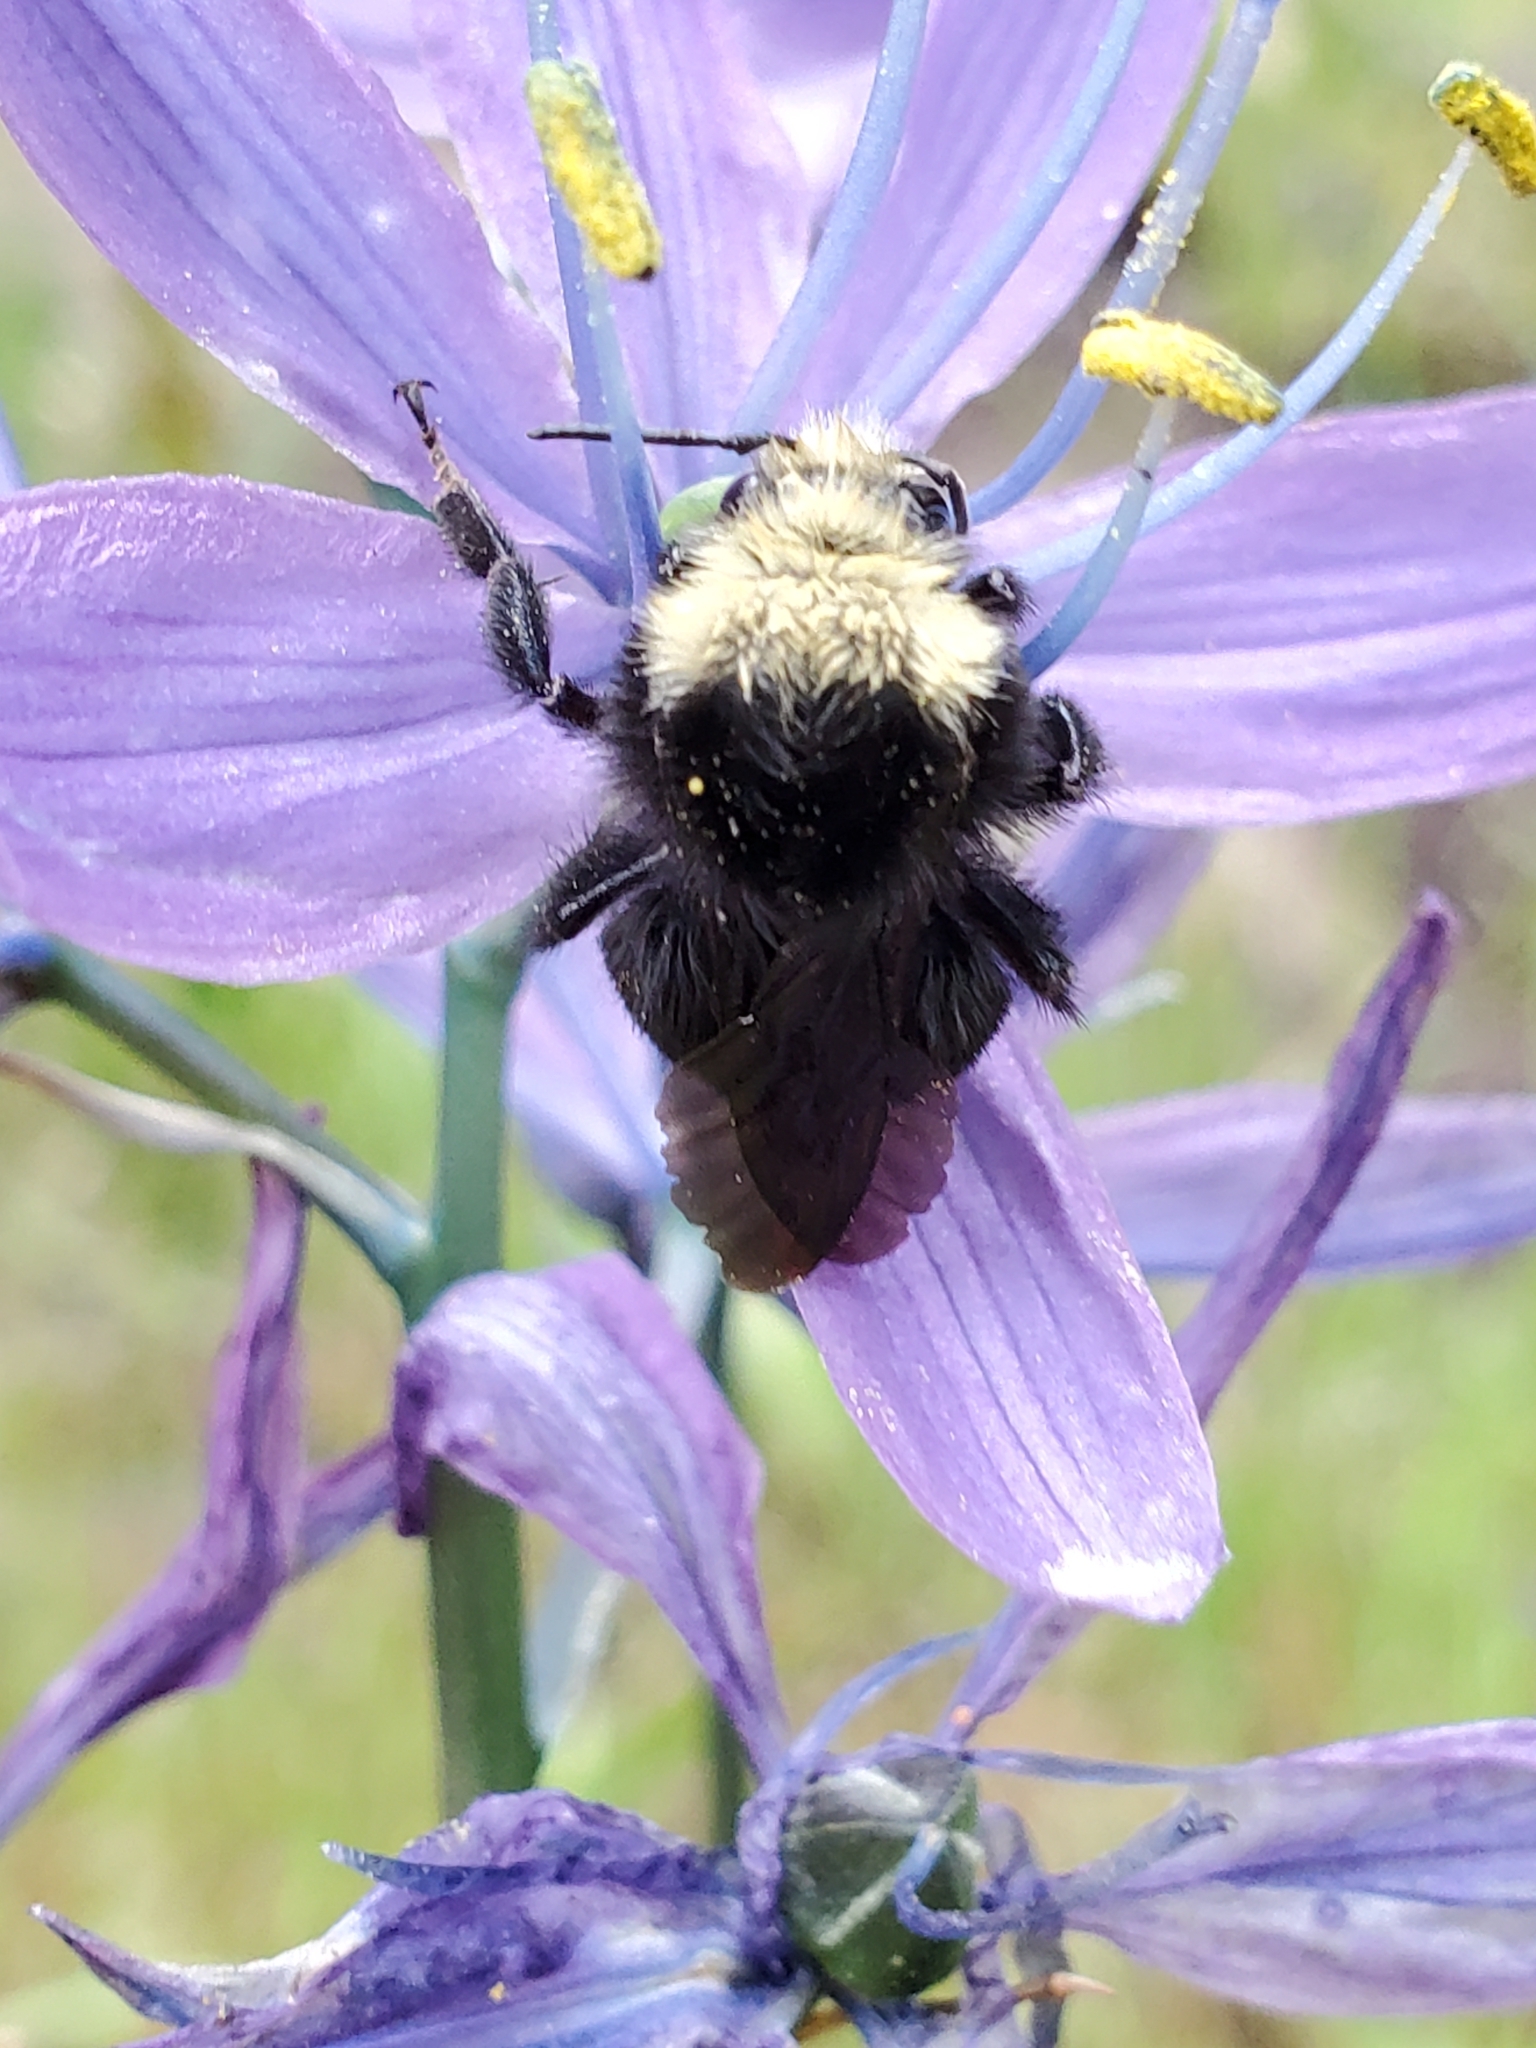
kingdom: Animalia
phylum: Arthropoda
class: Insecta
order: Hymenoptera
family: Apidae
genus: Bombus
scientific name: Bombus vosnesenskii
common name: Vosnesensky bumble bee
